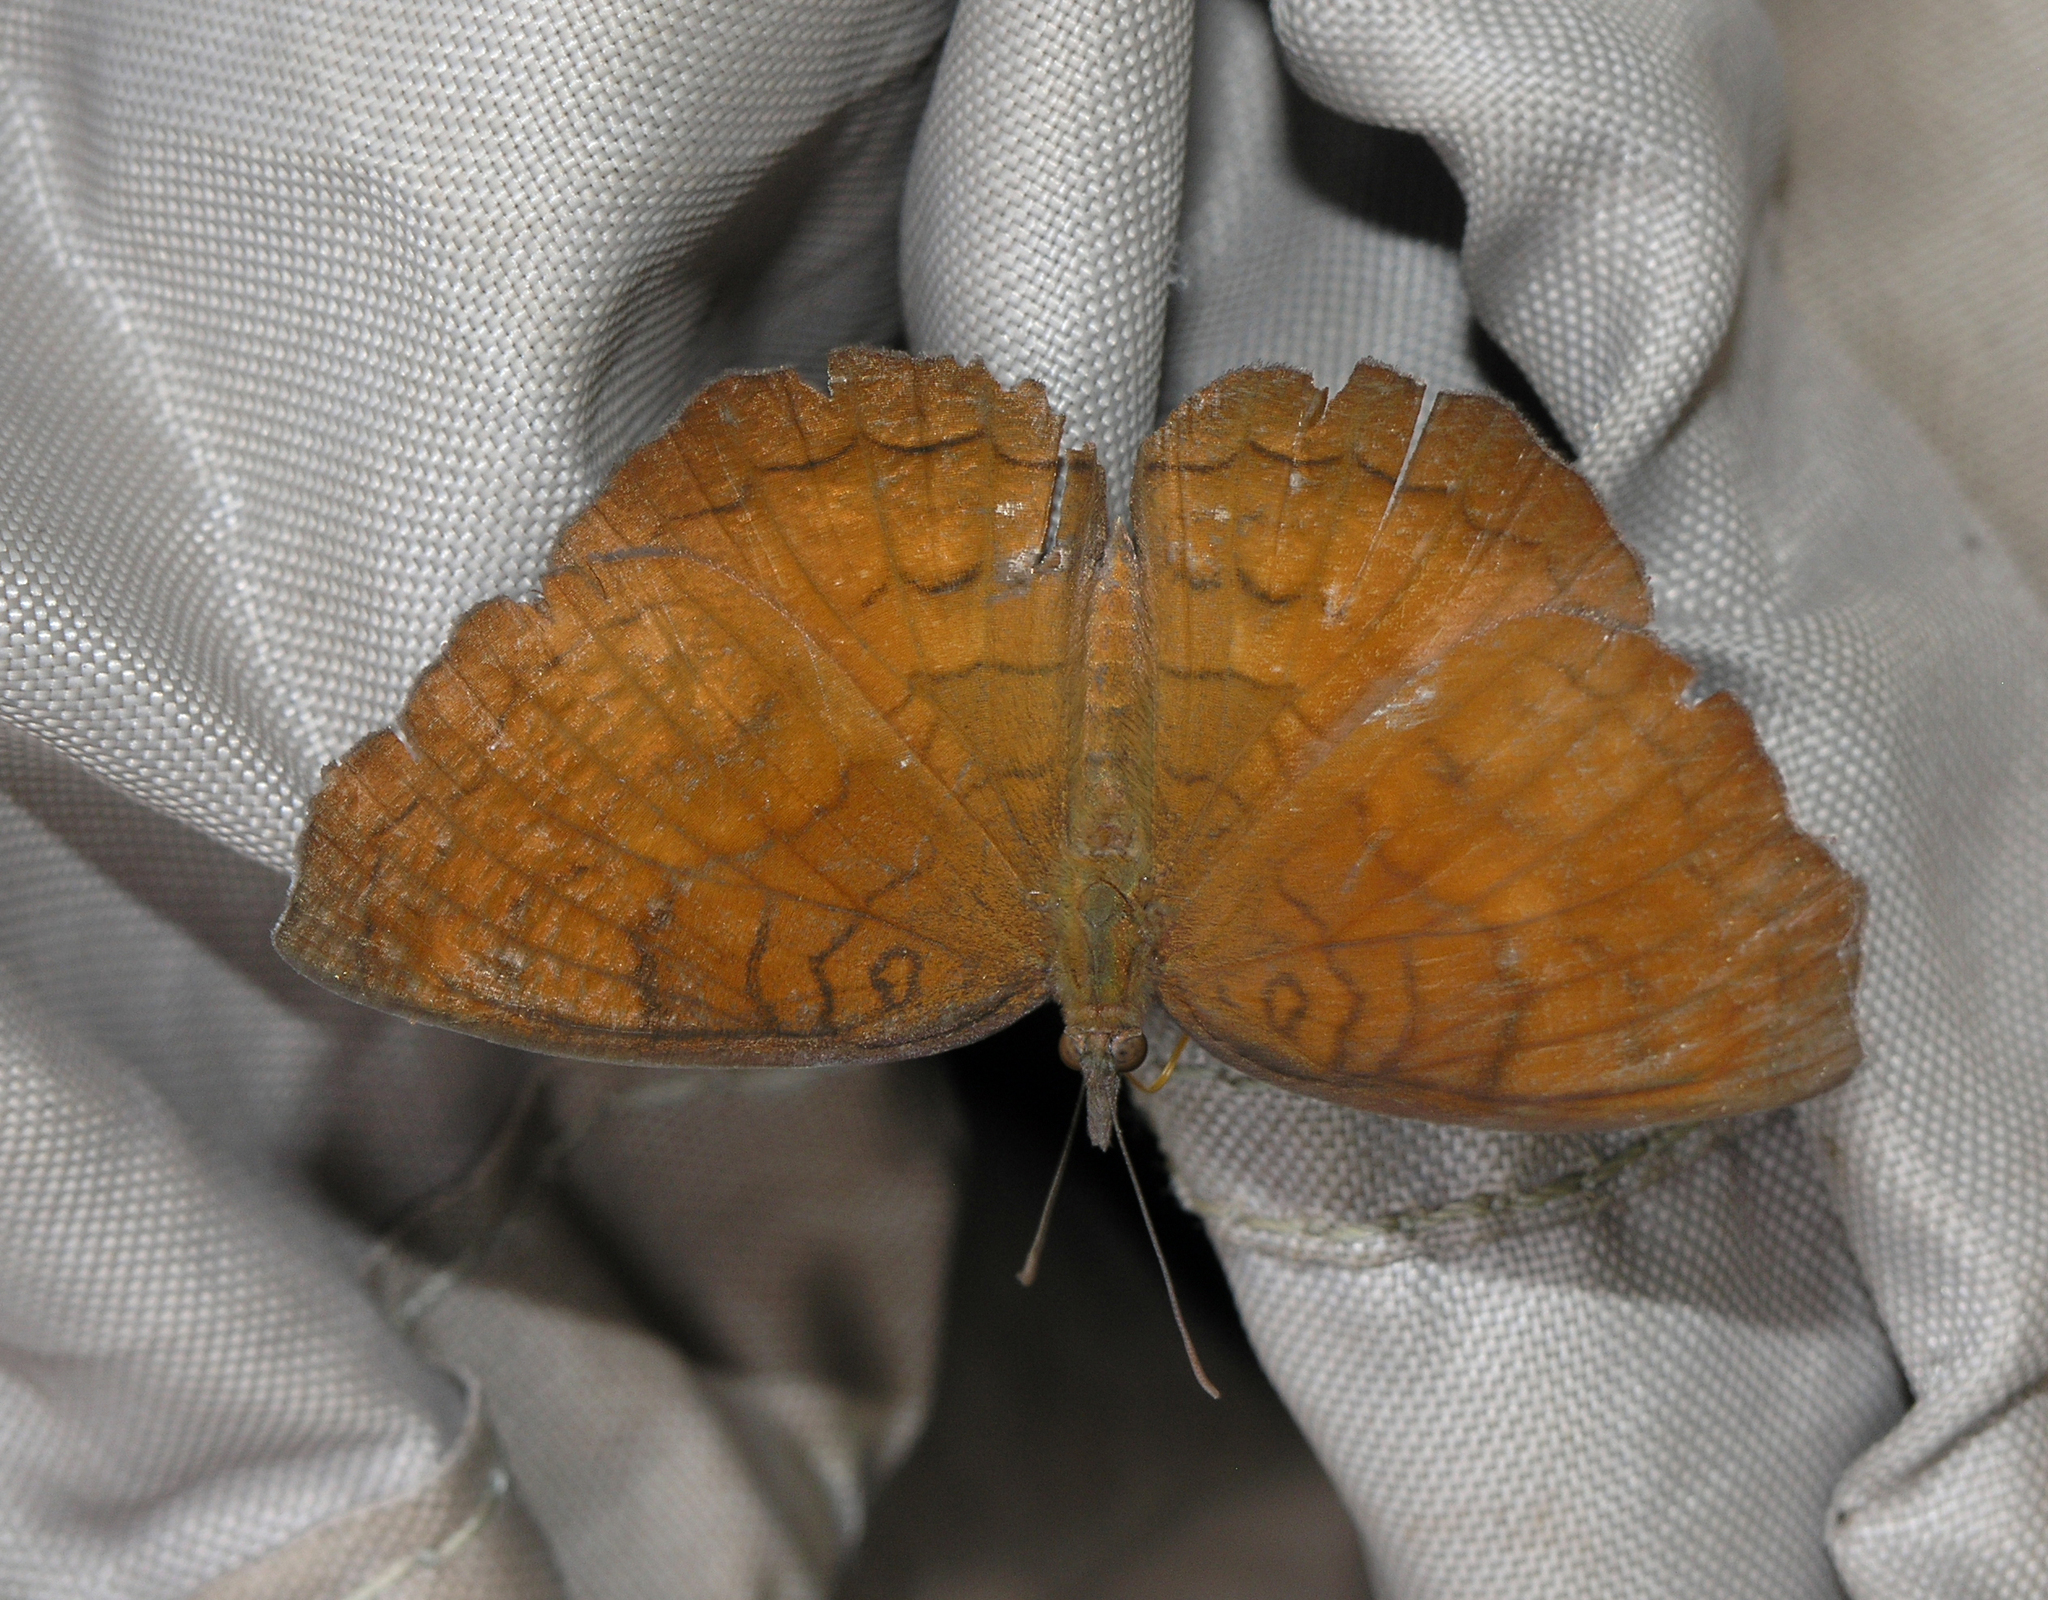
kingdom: Animalia
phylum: Arthropoda
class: Insecta
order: Lepidoptera
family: Nymphalidae
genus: Ariadne
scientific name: Ariadne specularia
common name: Banded castor
